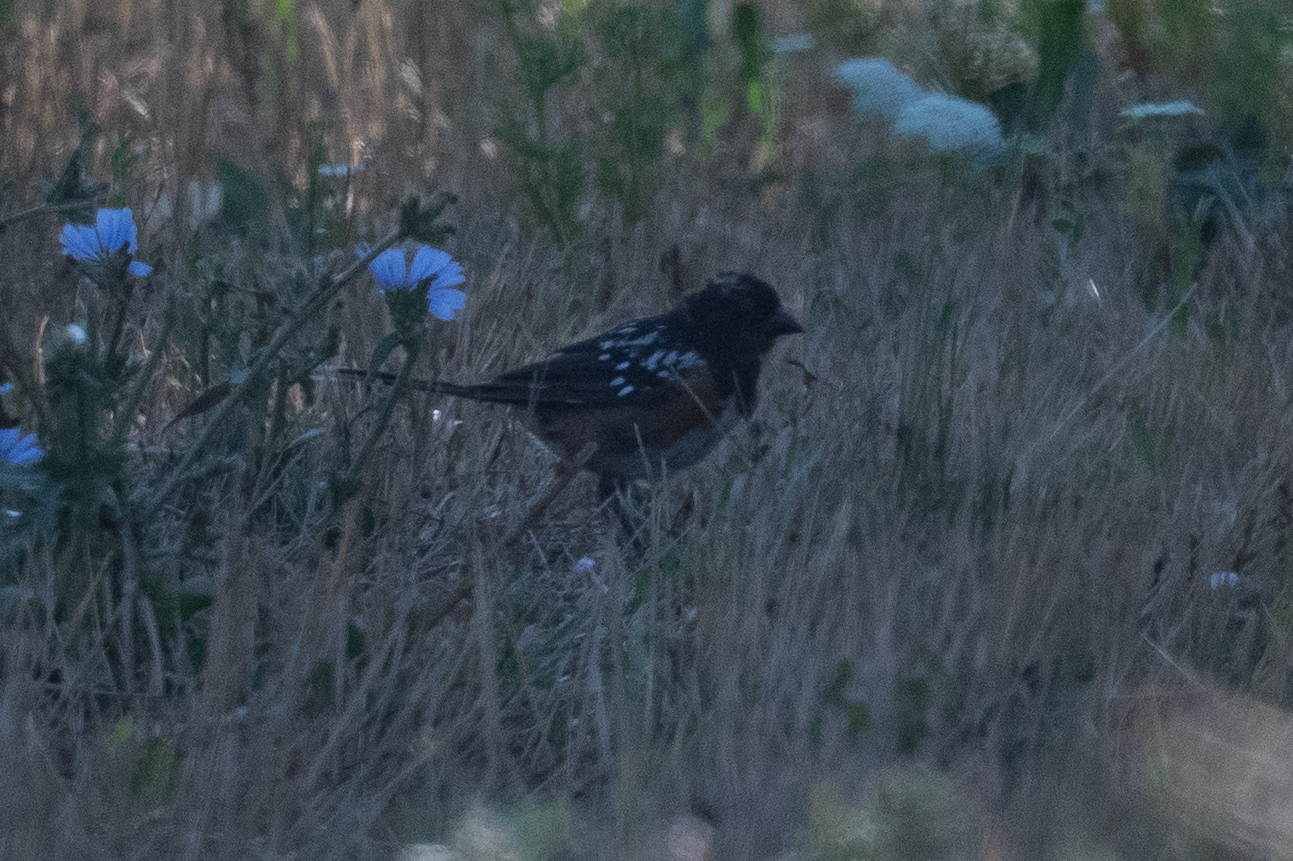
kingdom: Animalia
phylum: Chordata
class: Aves
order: Passeriformes
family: Passerellidae
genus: Pipilo
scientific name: Pipilo maculatus
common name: Spotted towhee
